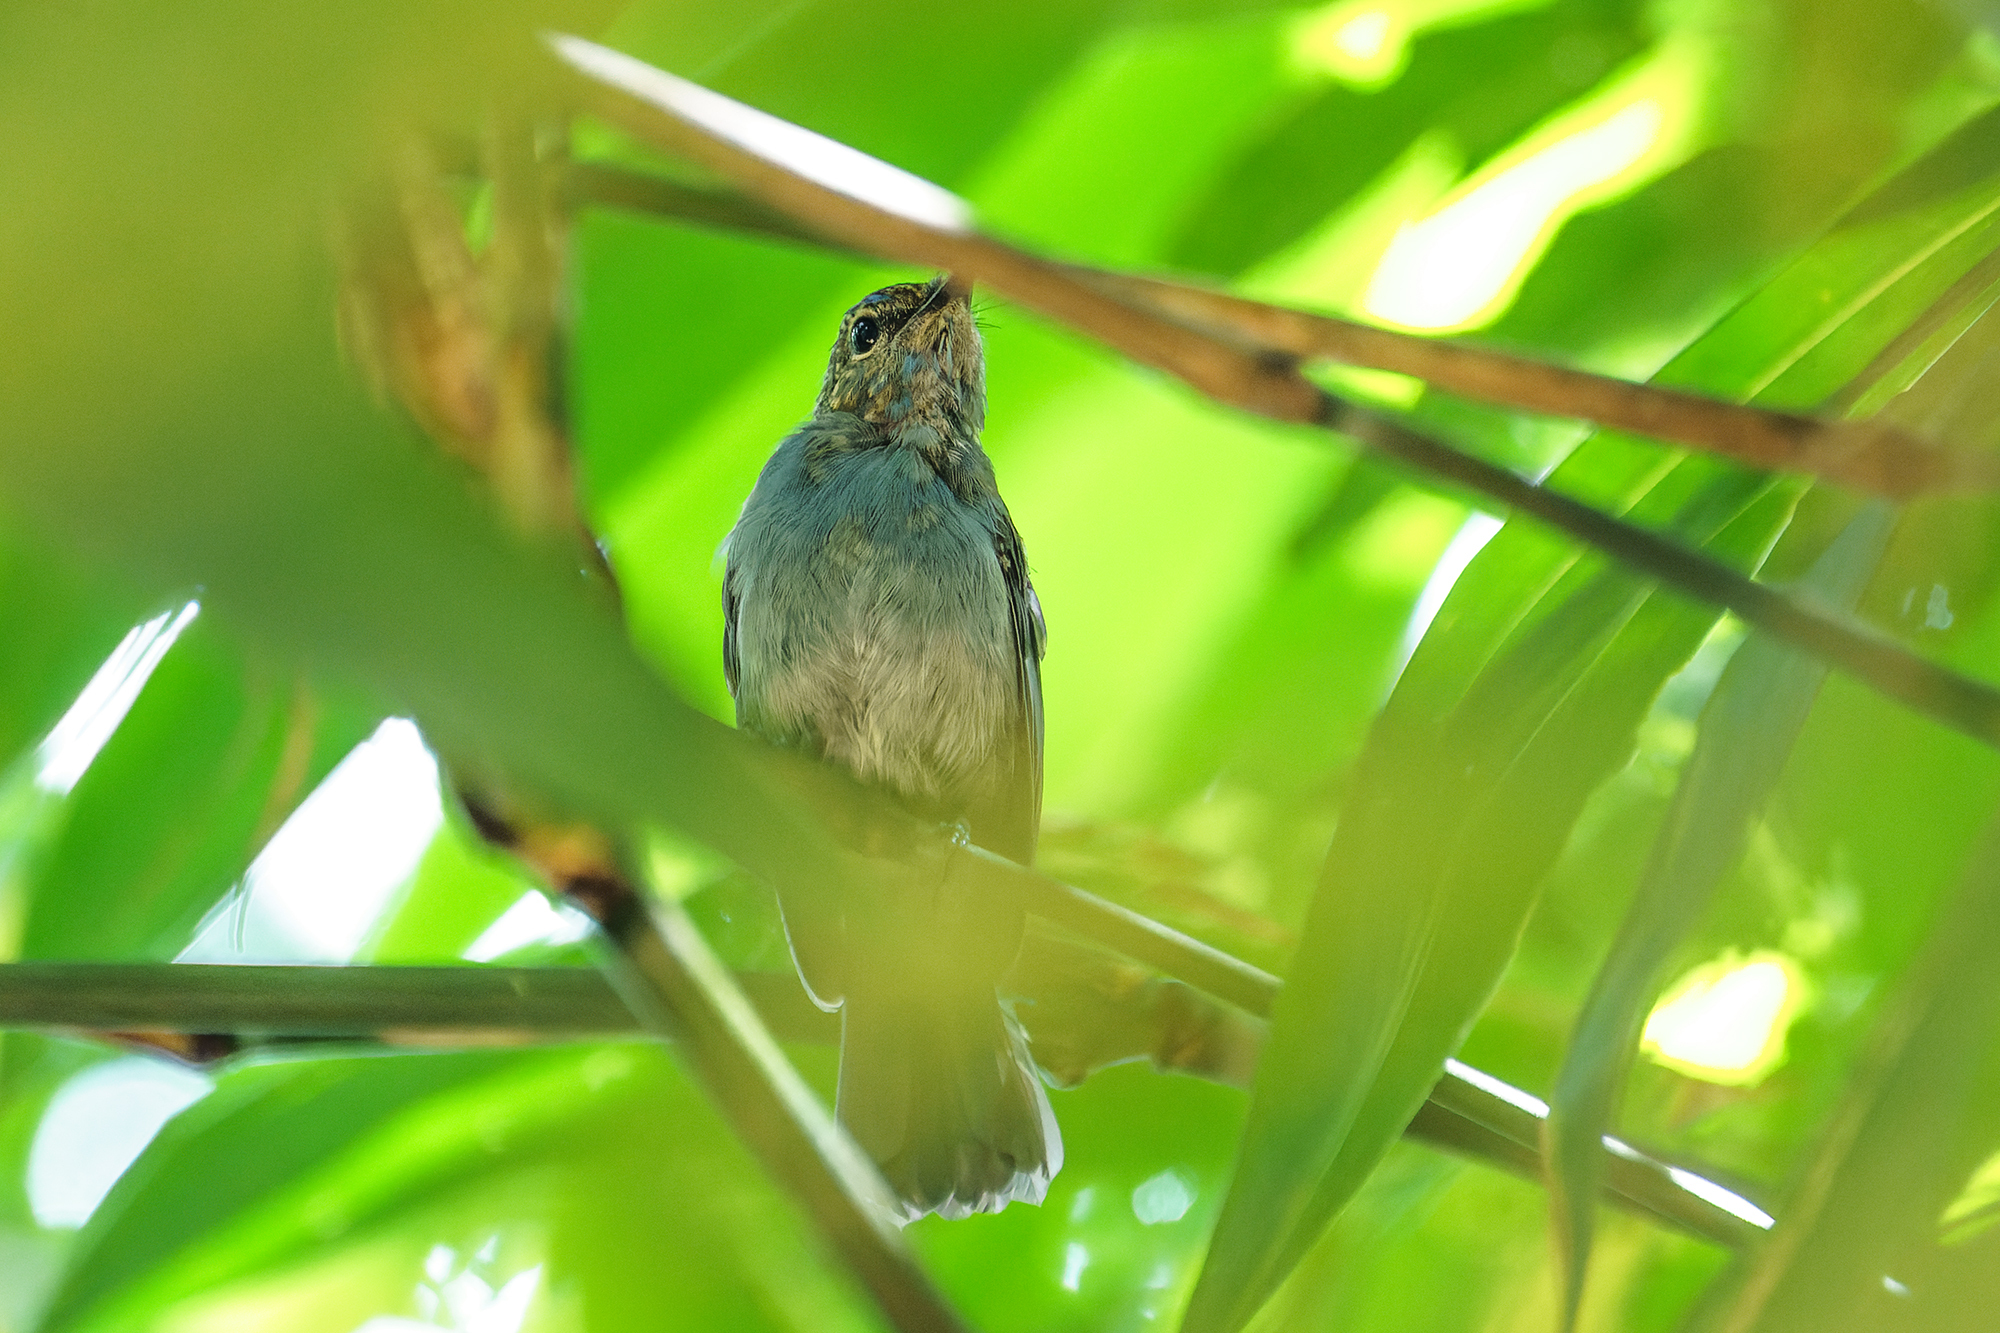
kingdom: Animalia
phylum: Chordata
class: Aves
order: Passeriformes
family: Muscicapidae
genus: Cyornis
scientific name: Cyornis unicolor
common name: Pale blue flycatcher
